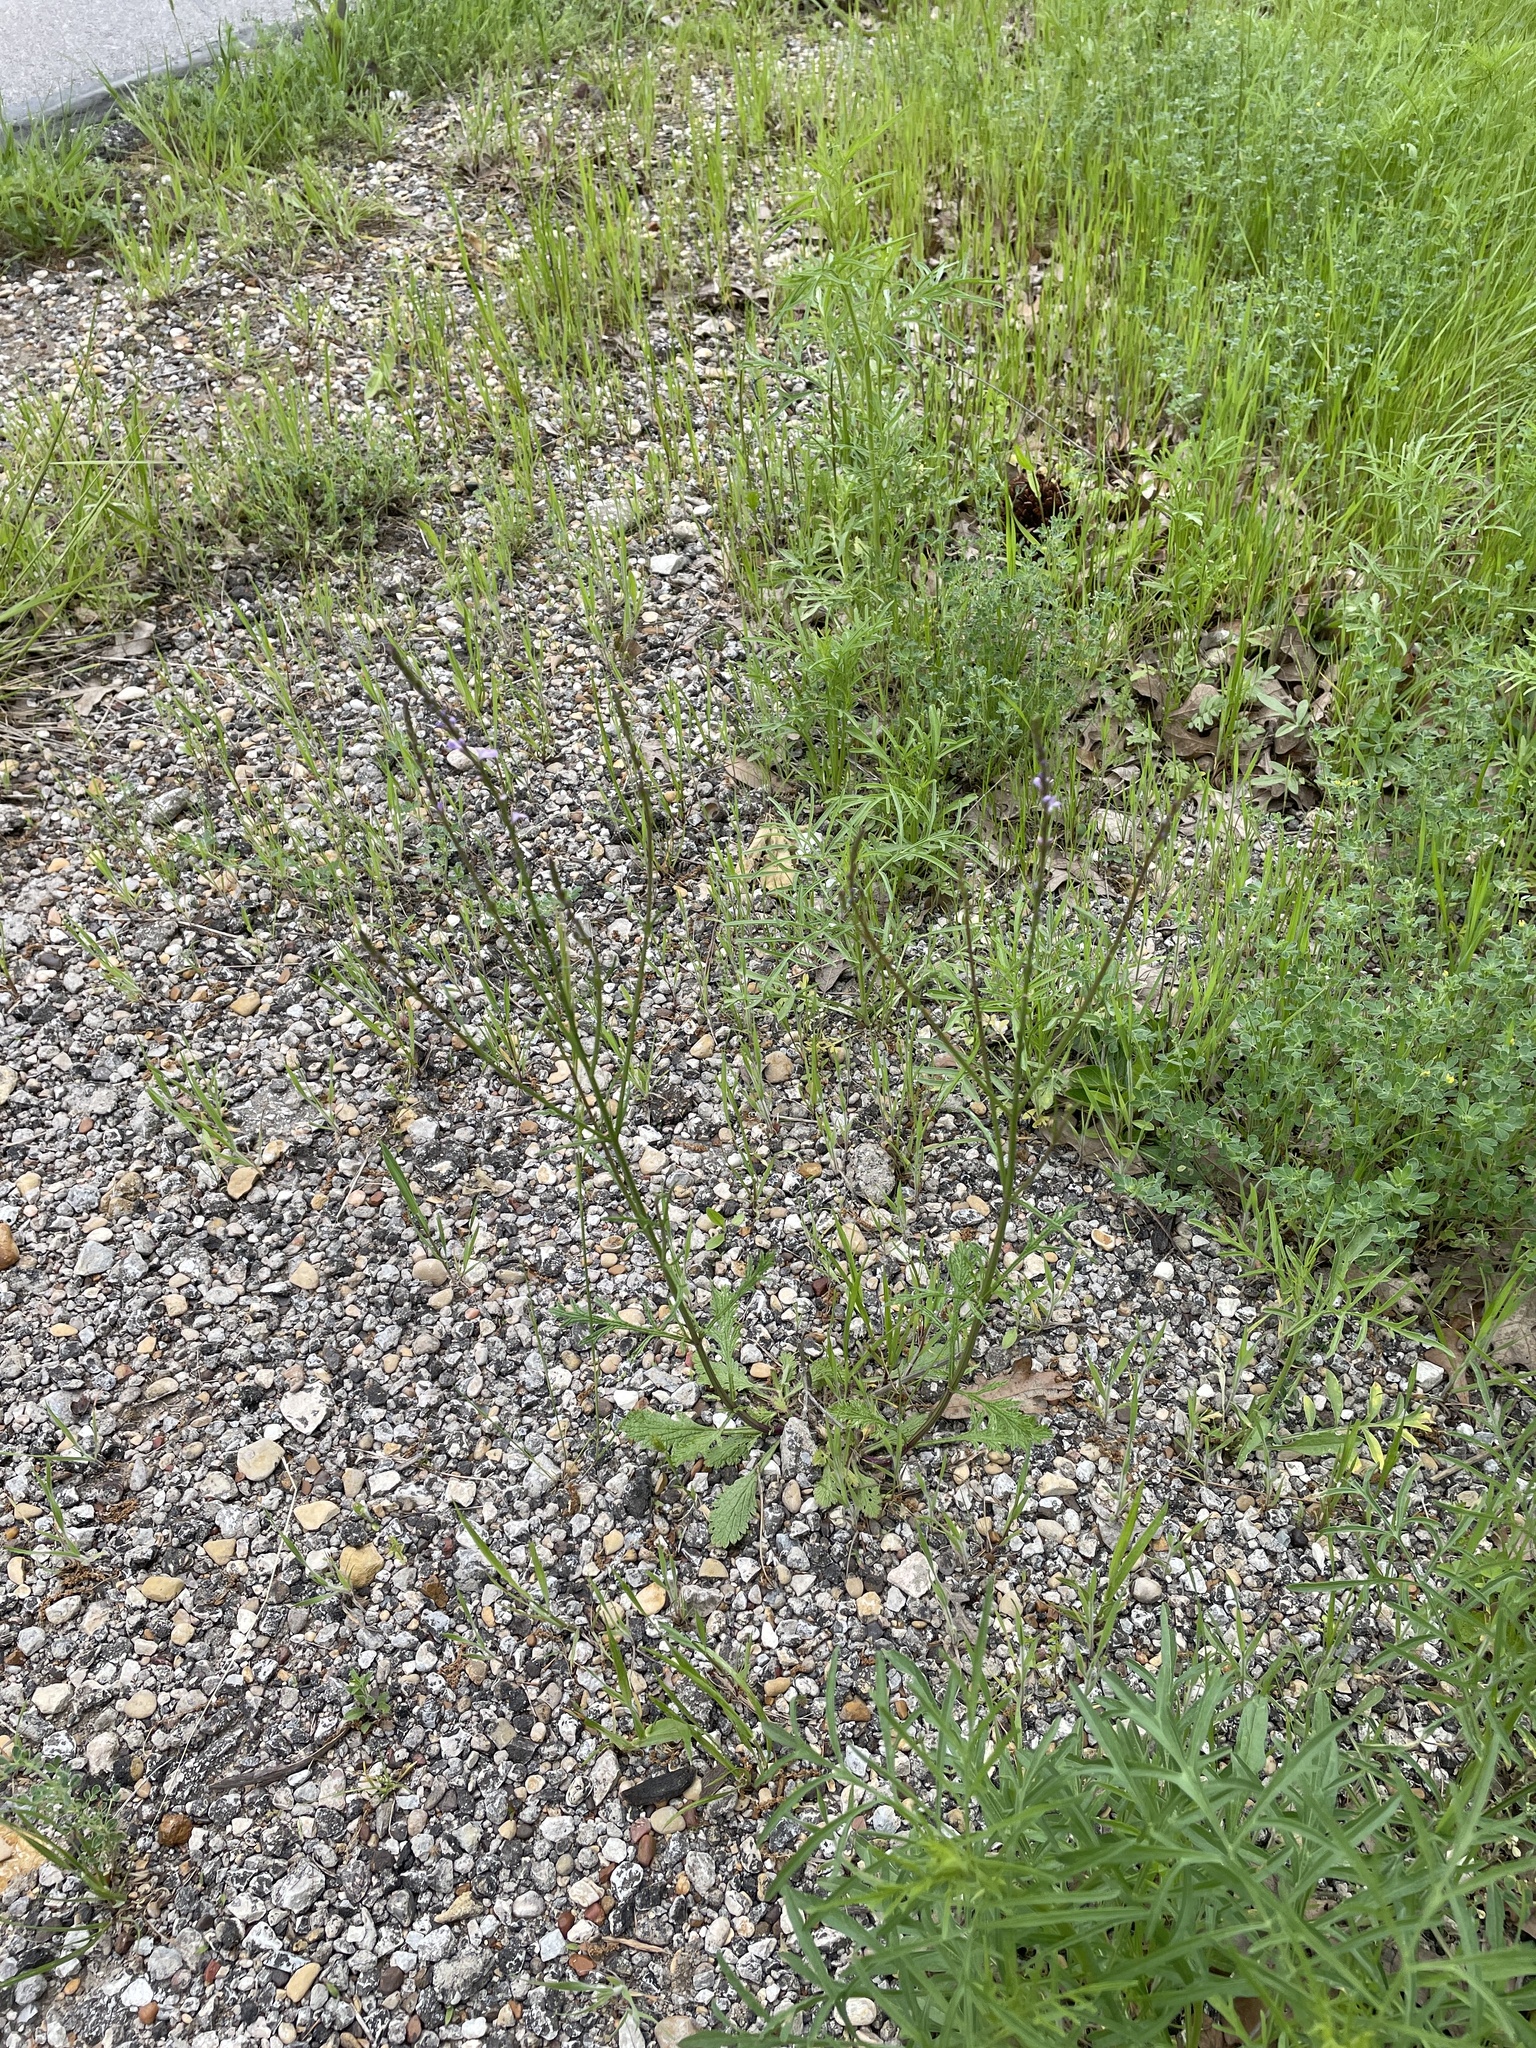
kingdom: Plantae
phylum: Tracheophyta
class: Magnoliopsida
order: Lamiales
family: Verbenaceae
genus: Verbena
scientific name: Verbena halei
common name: Texas vervain
